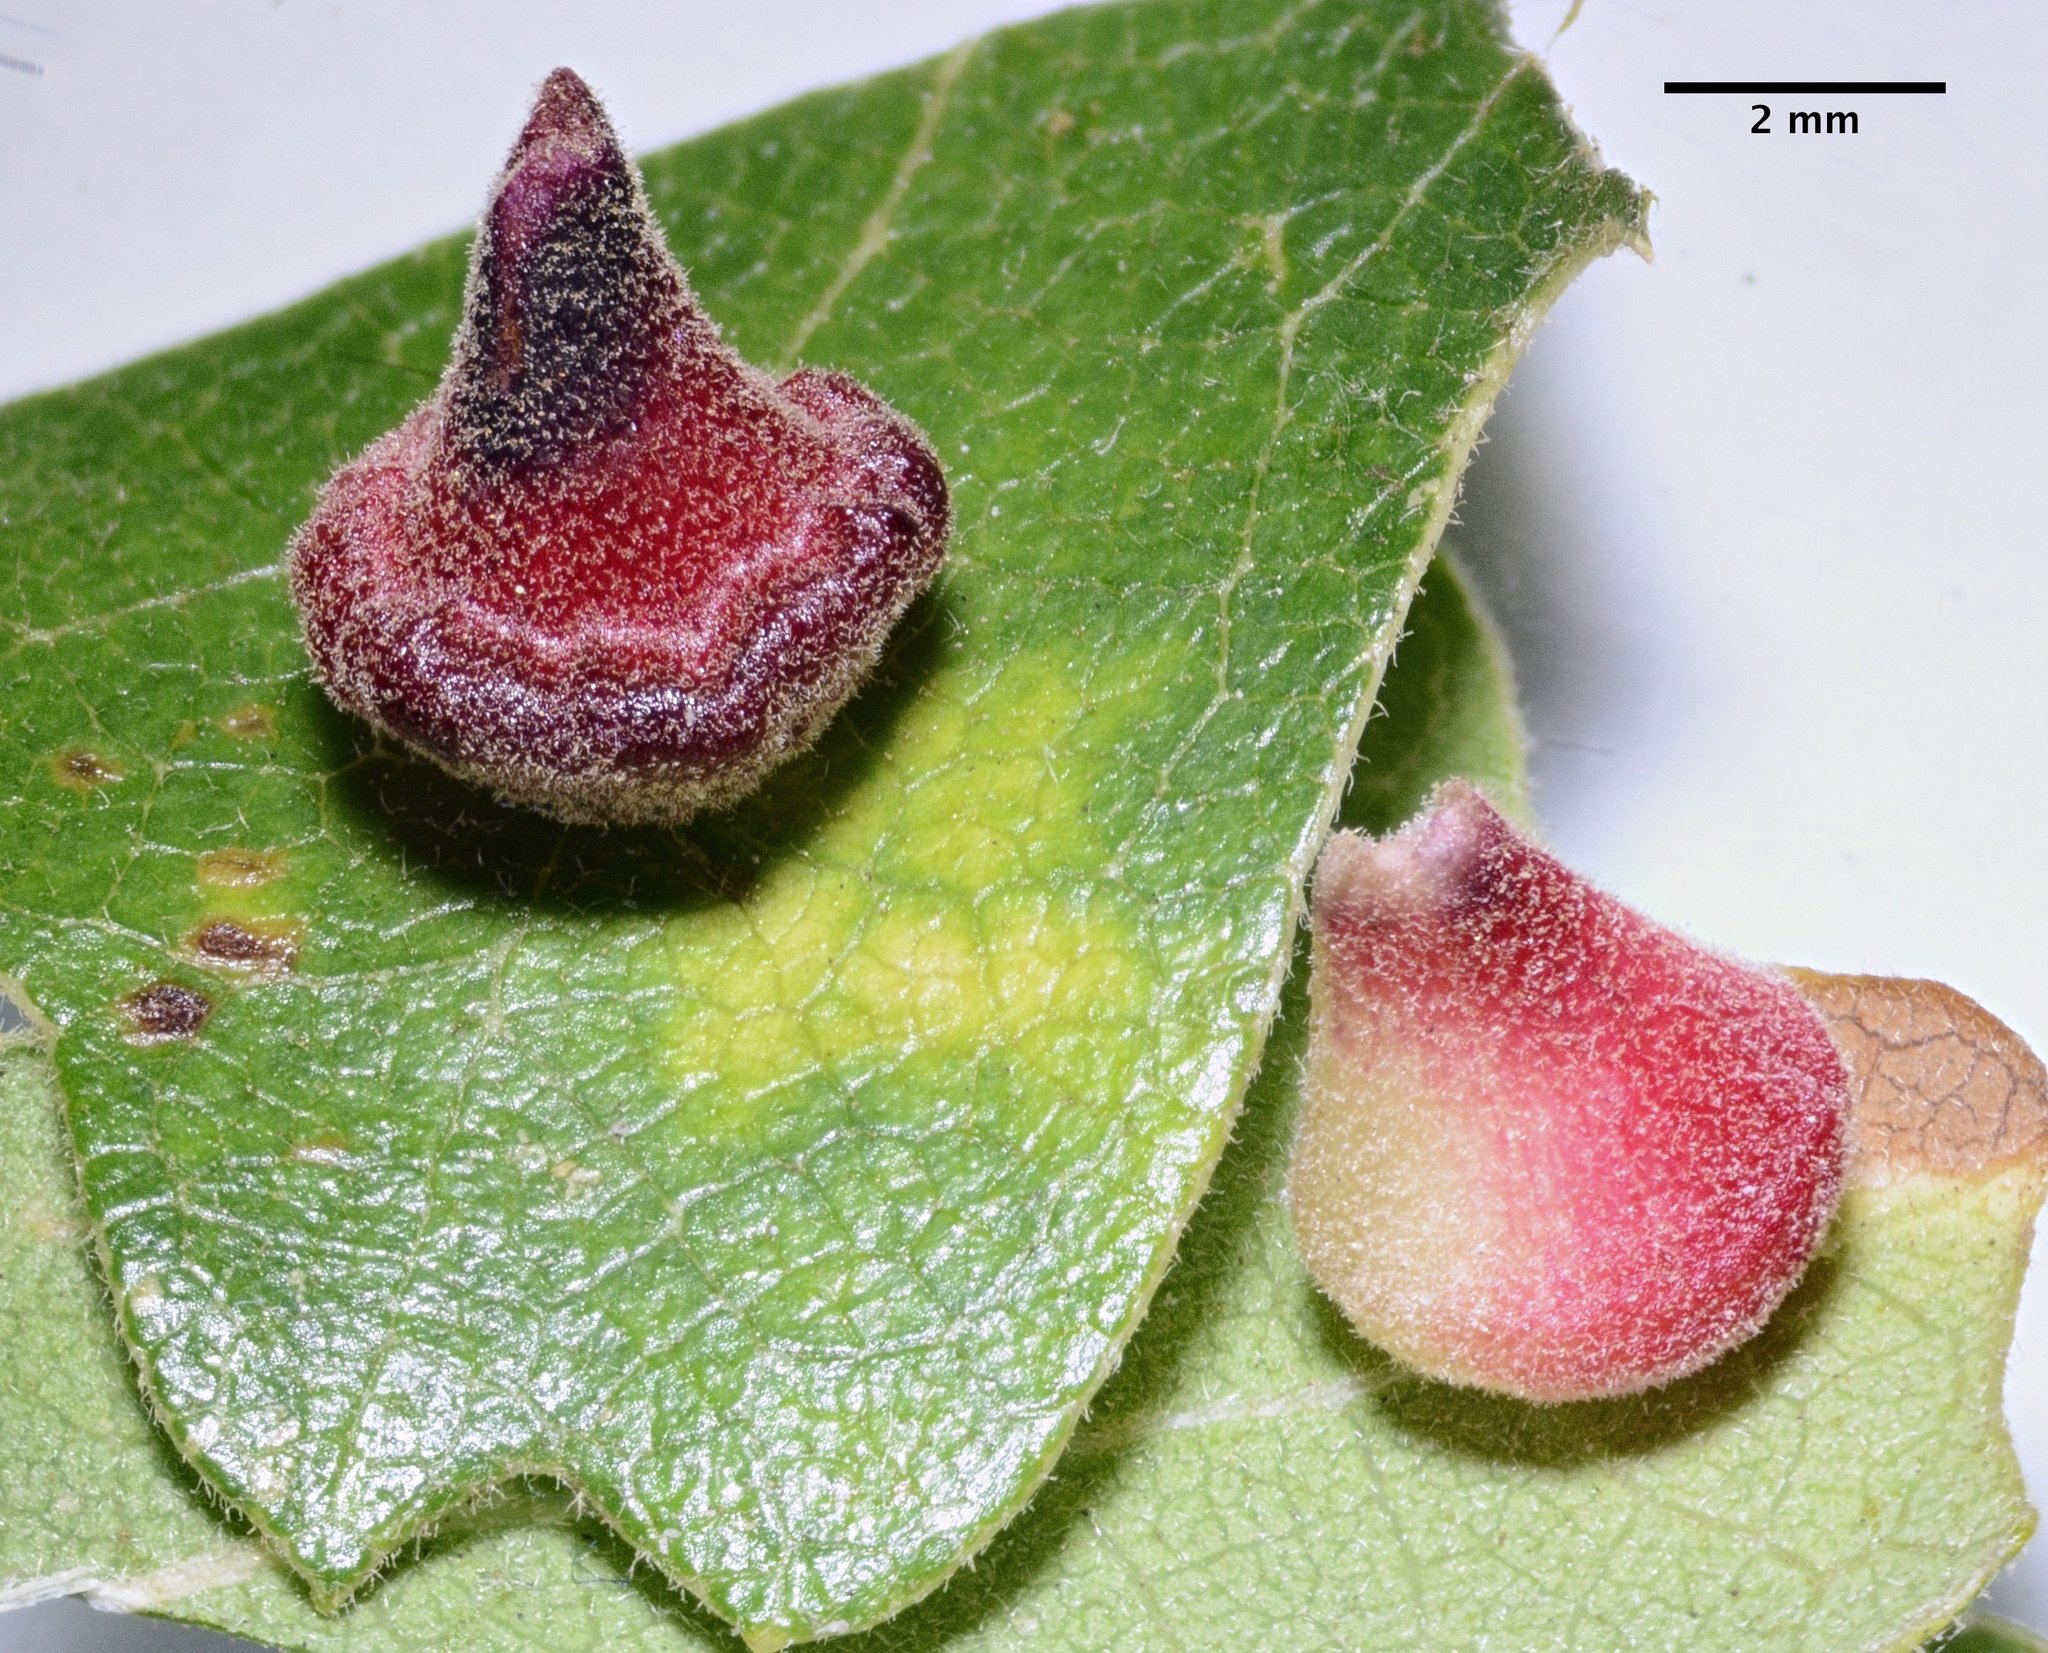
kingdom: Animalia
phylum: Arthropoda
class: Insecta
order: Hymenoptera
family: Cynipidae
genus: Andricus
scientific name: Andricus
